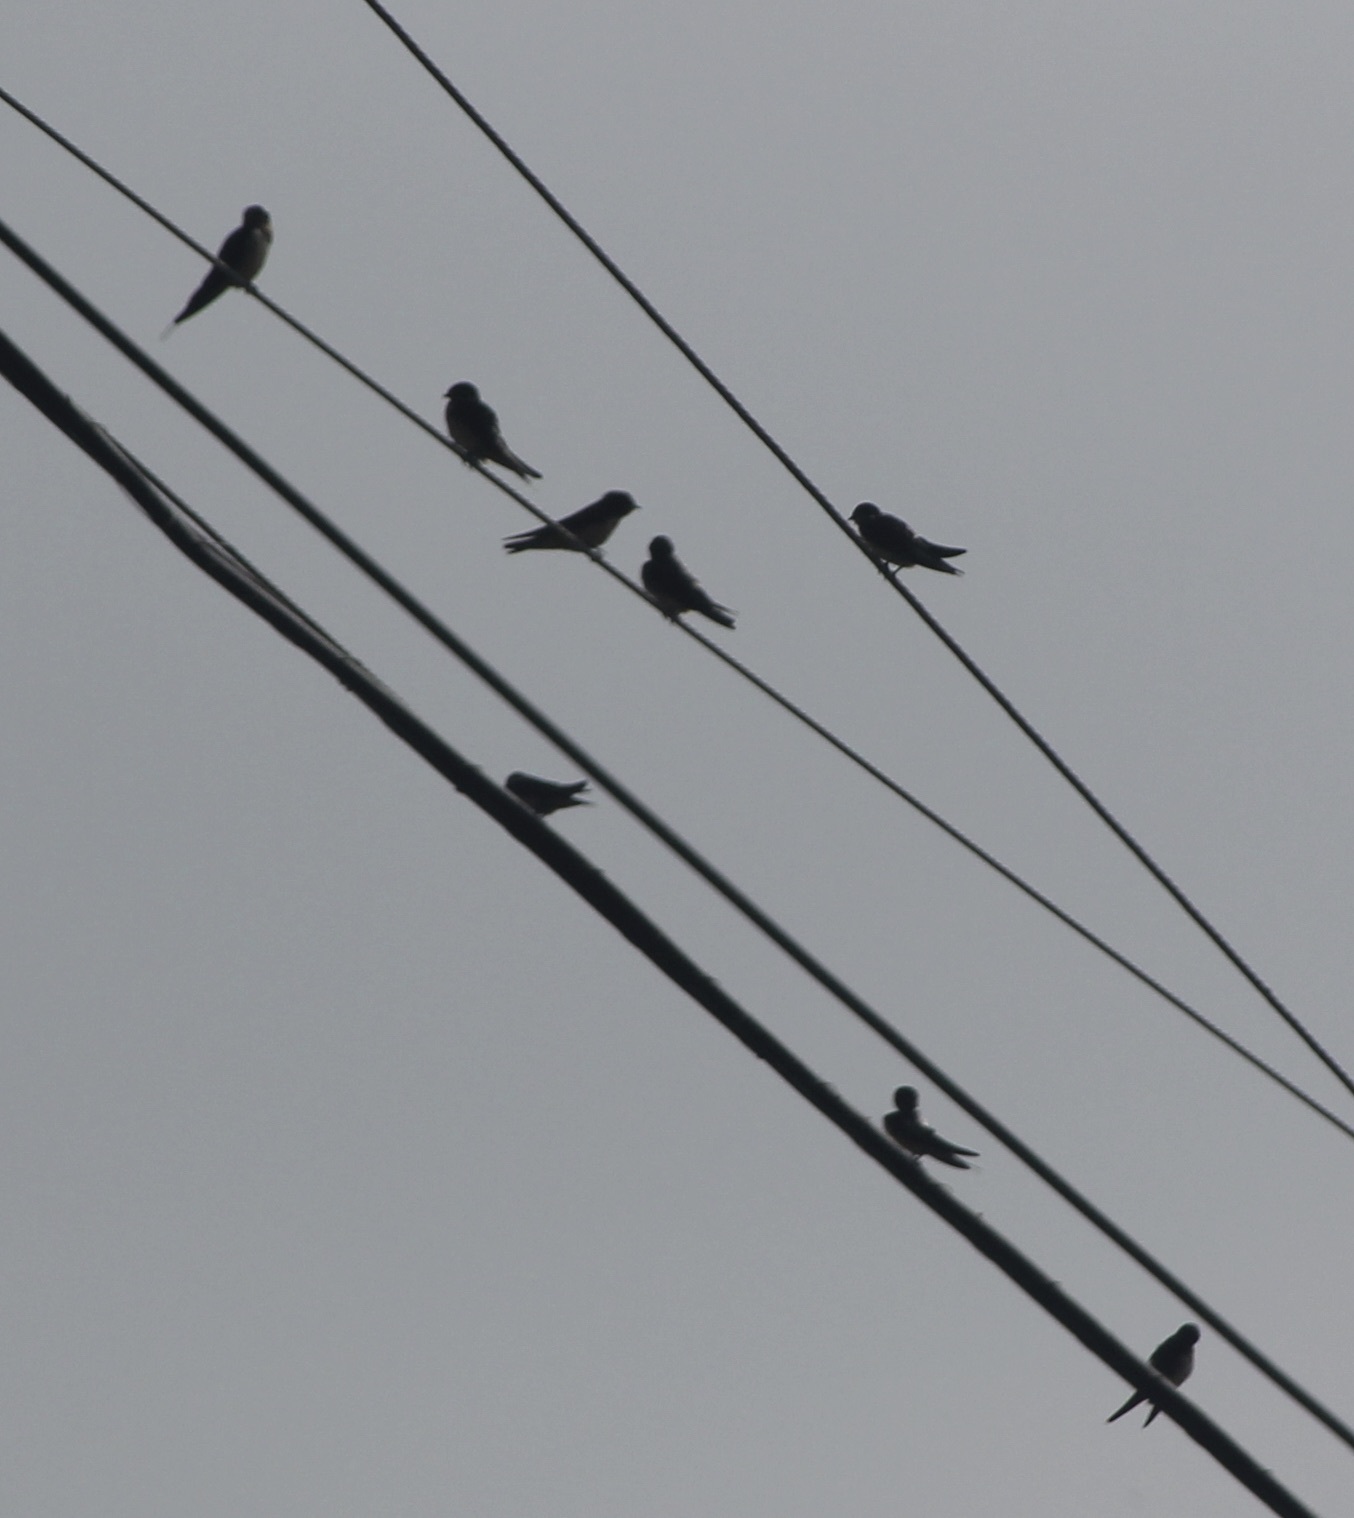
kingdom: Animalia
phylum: Chordata
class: Aves
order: Passeriformes
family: Hirundinidae
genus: Hirundo
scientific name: Hirundo rustica
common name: Barn swallow
